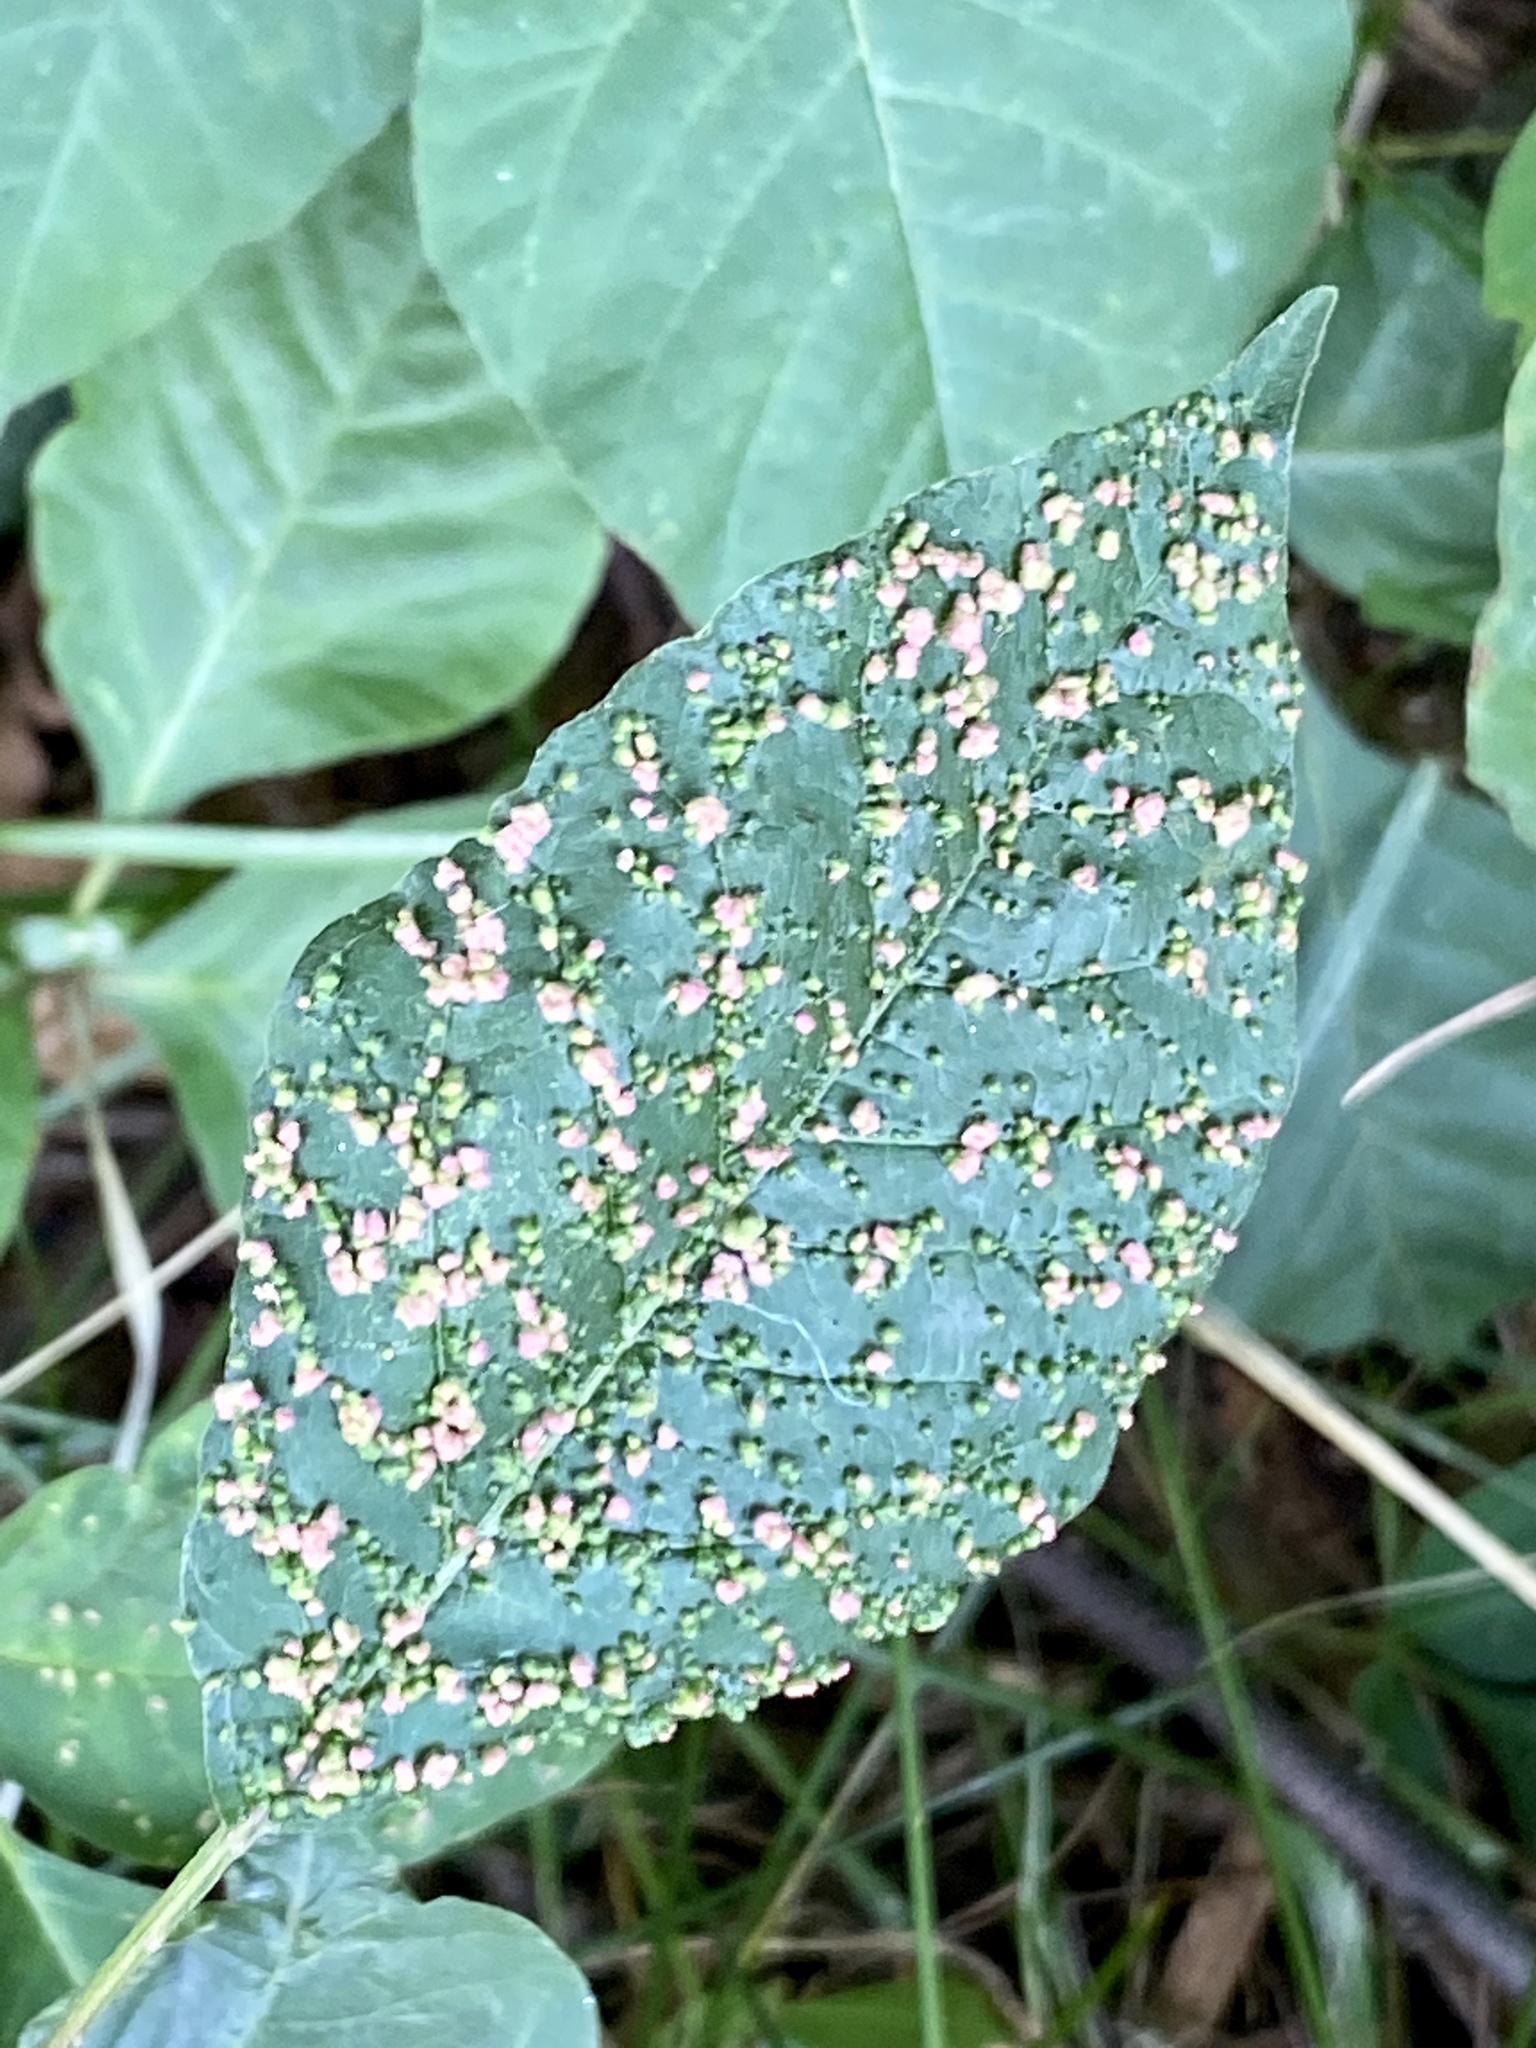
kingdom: Animalia
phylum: Arthropoda
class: Arachnida
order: Trombidiformes
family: Eriophyidae
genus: Aculops
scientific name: Aculops
